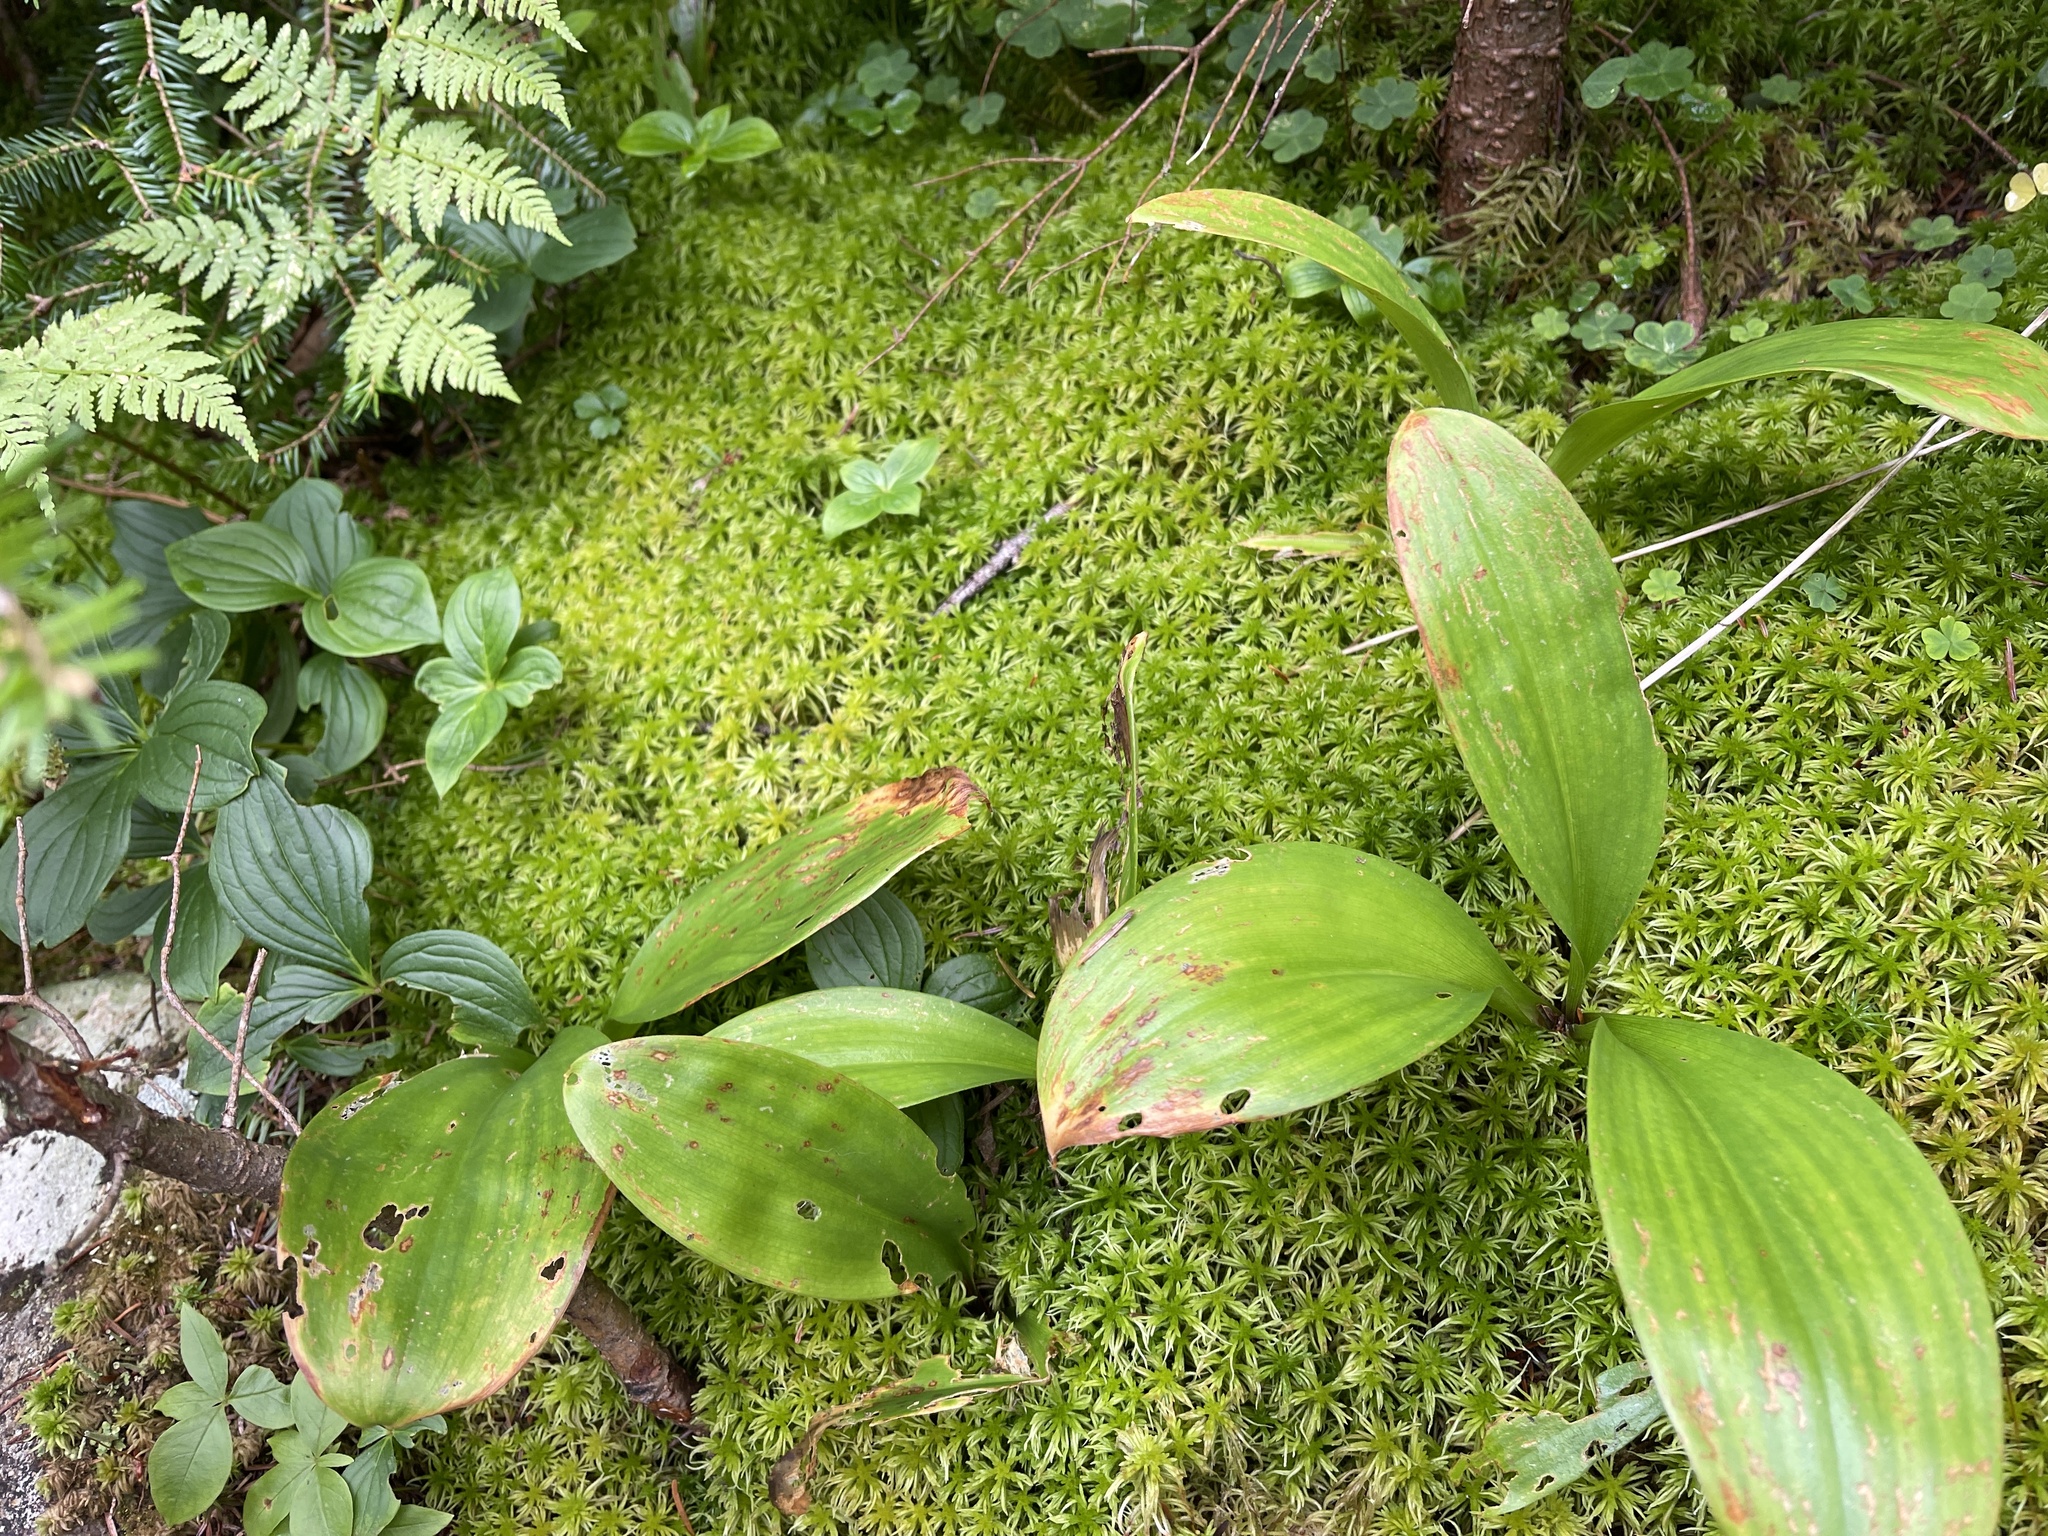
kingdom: Plantae
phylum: Tracheophyta
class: Liliopsida
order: Liliales
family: Liliaceae
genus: Clintonia
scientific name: Clintonia borealis
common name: Yellow clintonia
